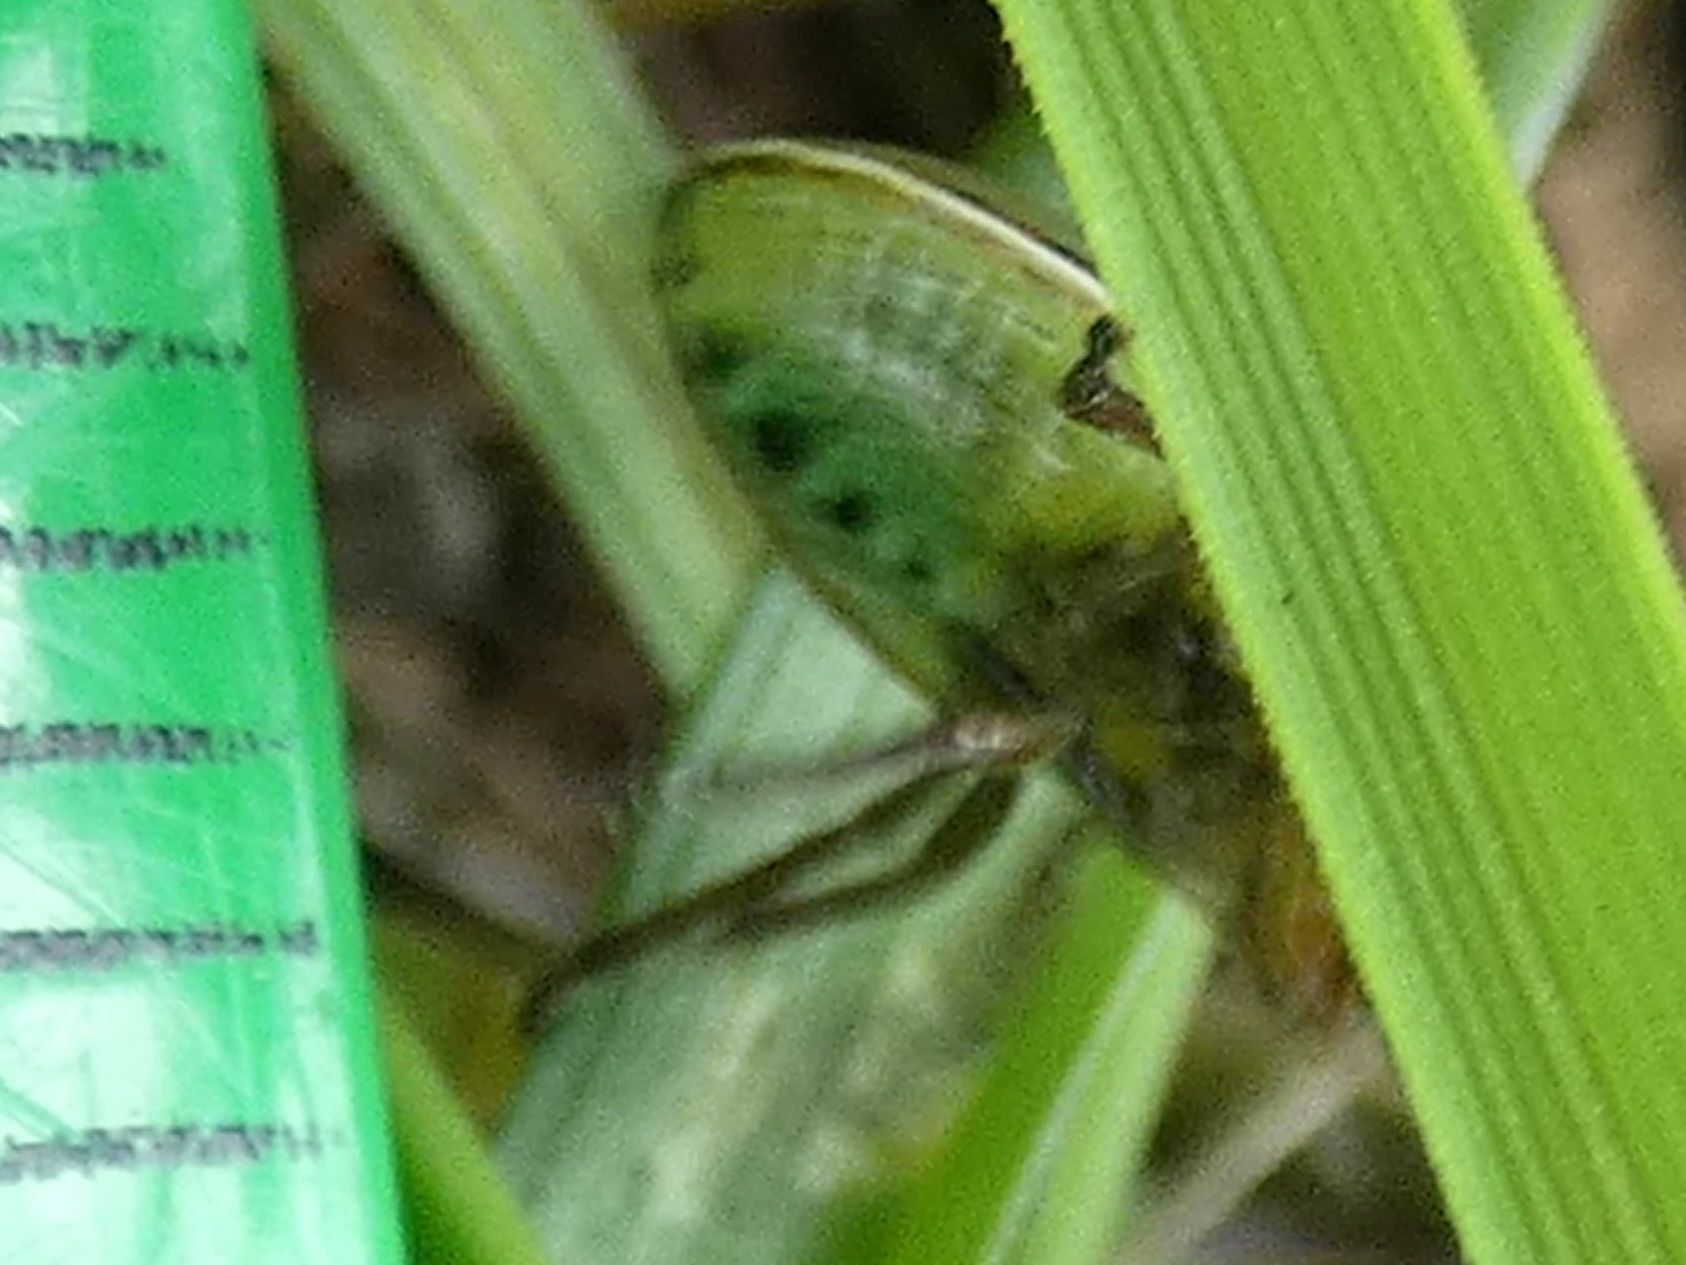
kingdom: Animalia
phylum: Arthropoda
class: Insecta
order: Hemiptera
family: Pentatomidae
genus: Piezodorus
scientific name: Piezodorus lituratus
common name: Stink bug
